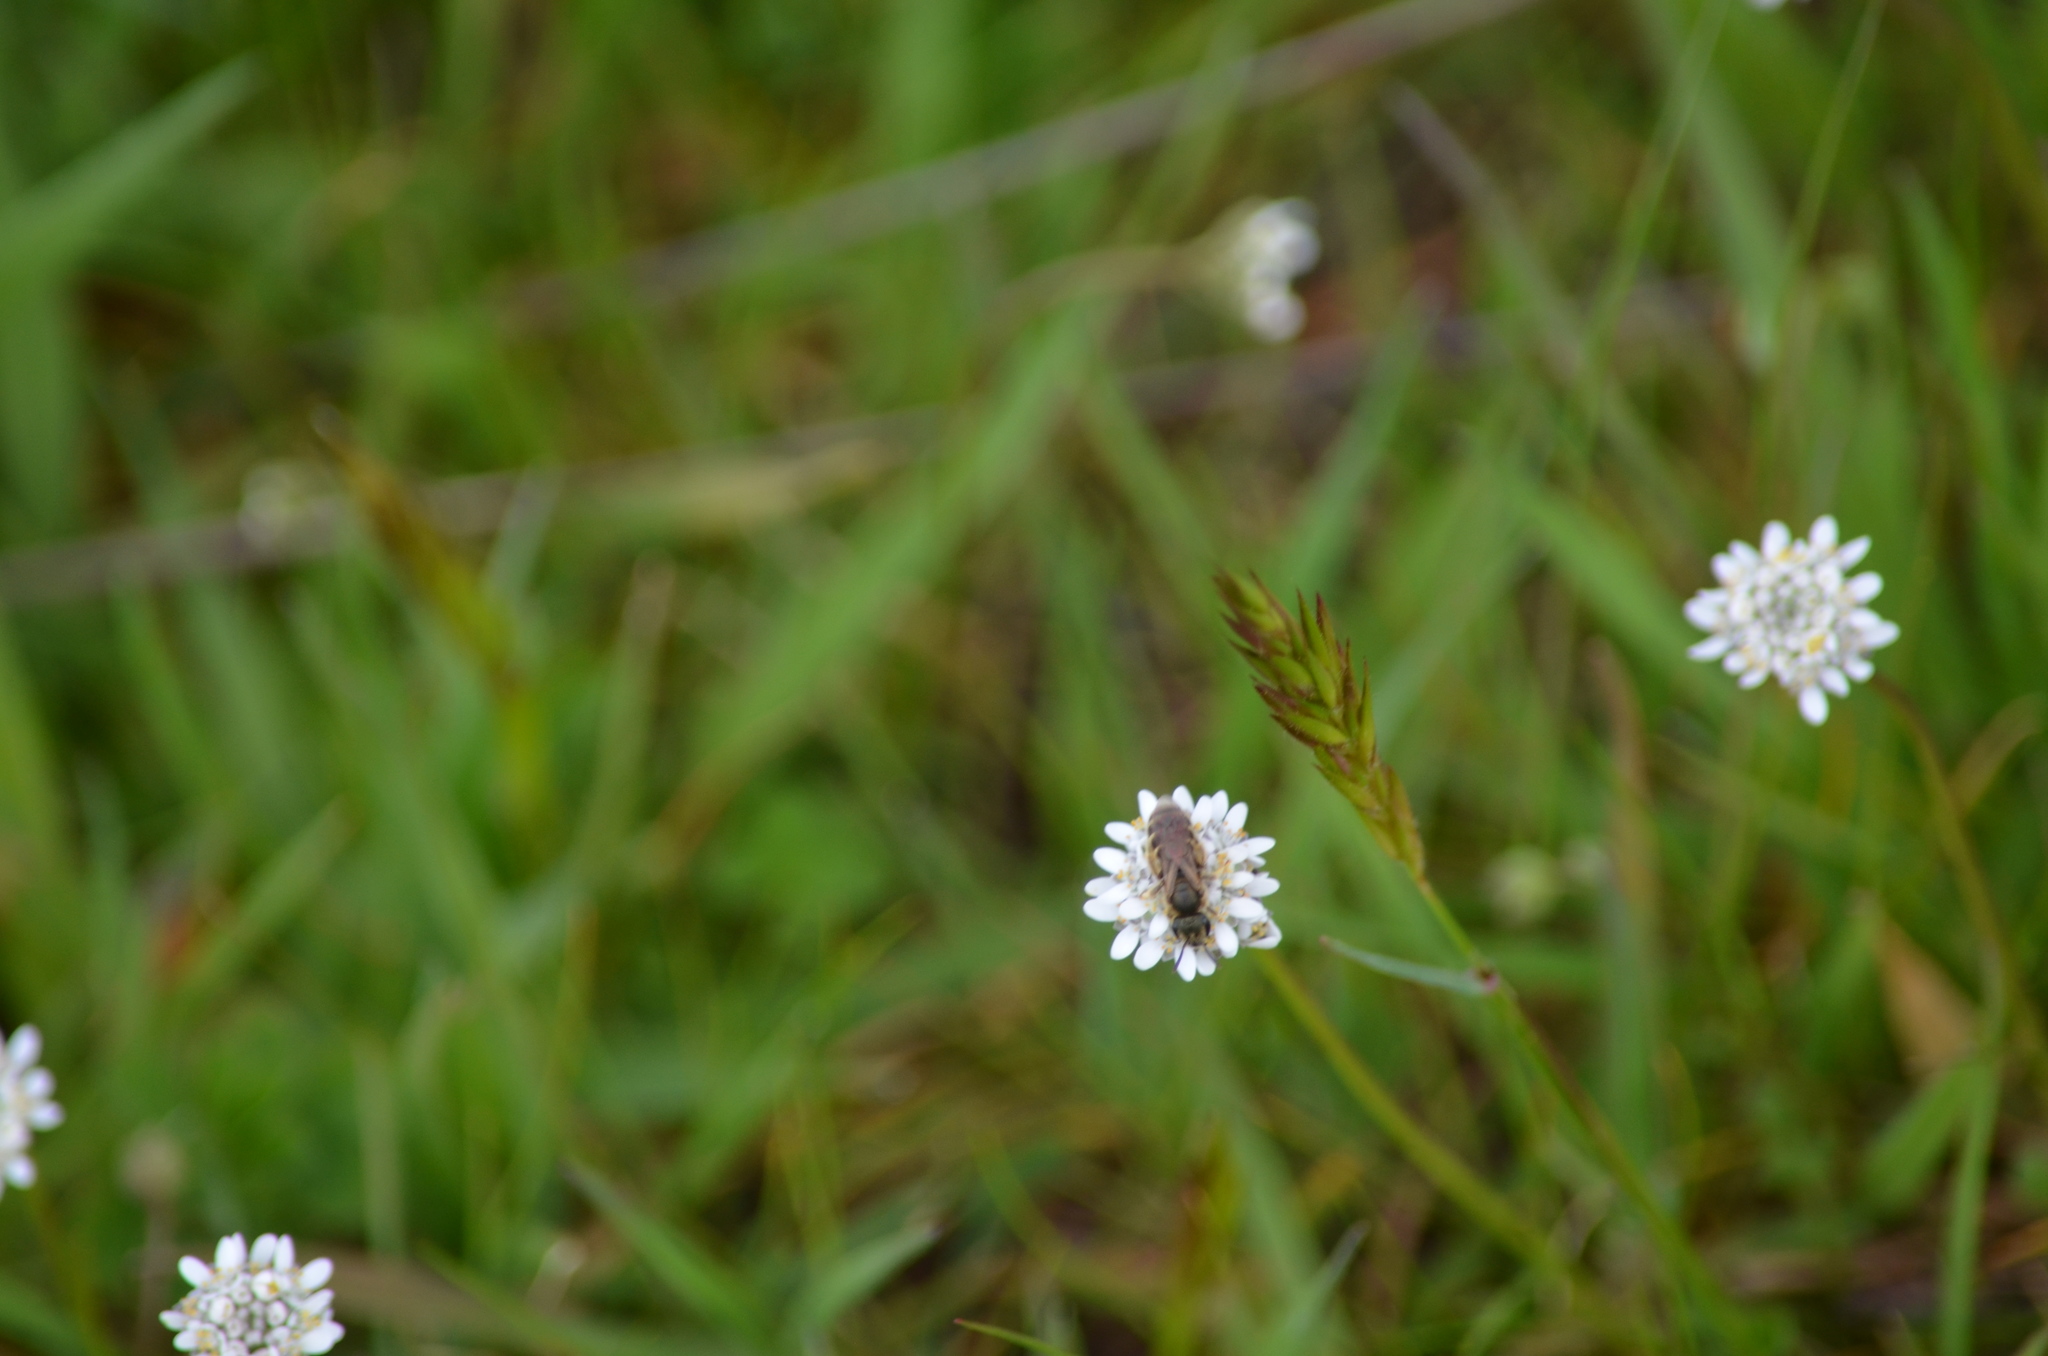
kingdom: Plantae
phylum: Tracheophyta
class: Magnoliopsida
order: Brassicales
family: Brassicaceae
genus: Teesdalia
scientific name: Teesdalia nudicaulis
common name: Shepherd's cress
